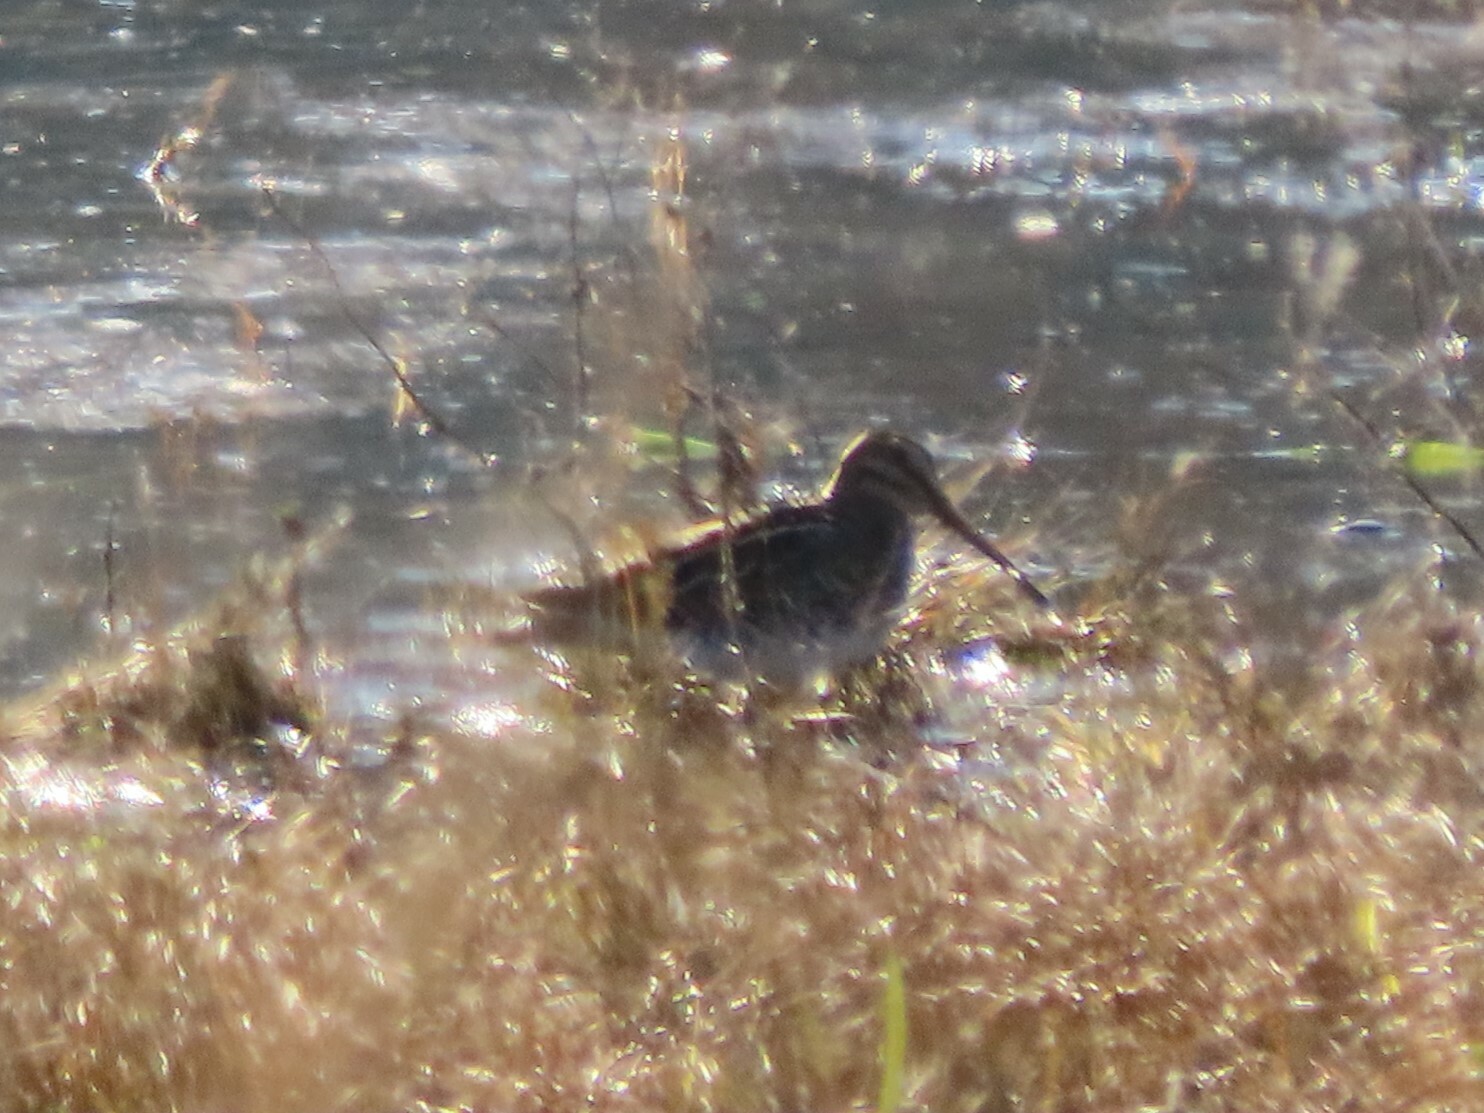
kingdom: Animalia
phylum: Chordata
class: Aves
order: Charadriiformes
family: Scolopacidae
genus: Gallinago
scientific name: Gallinago gallinago
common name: Common snipe
